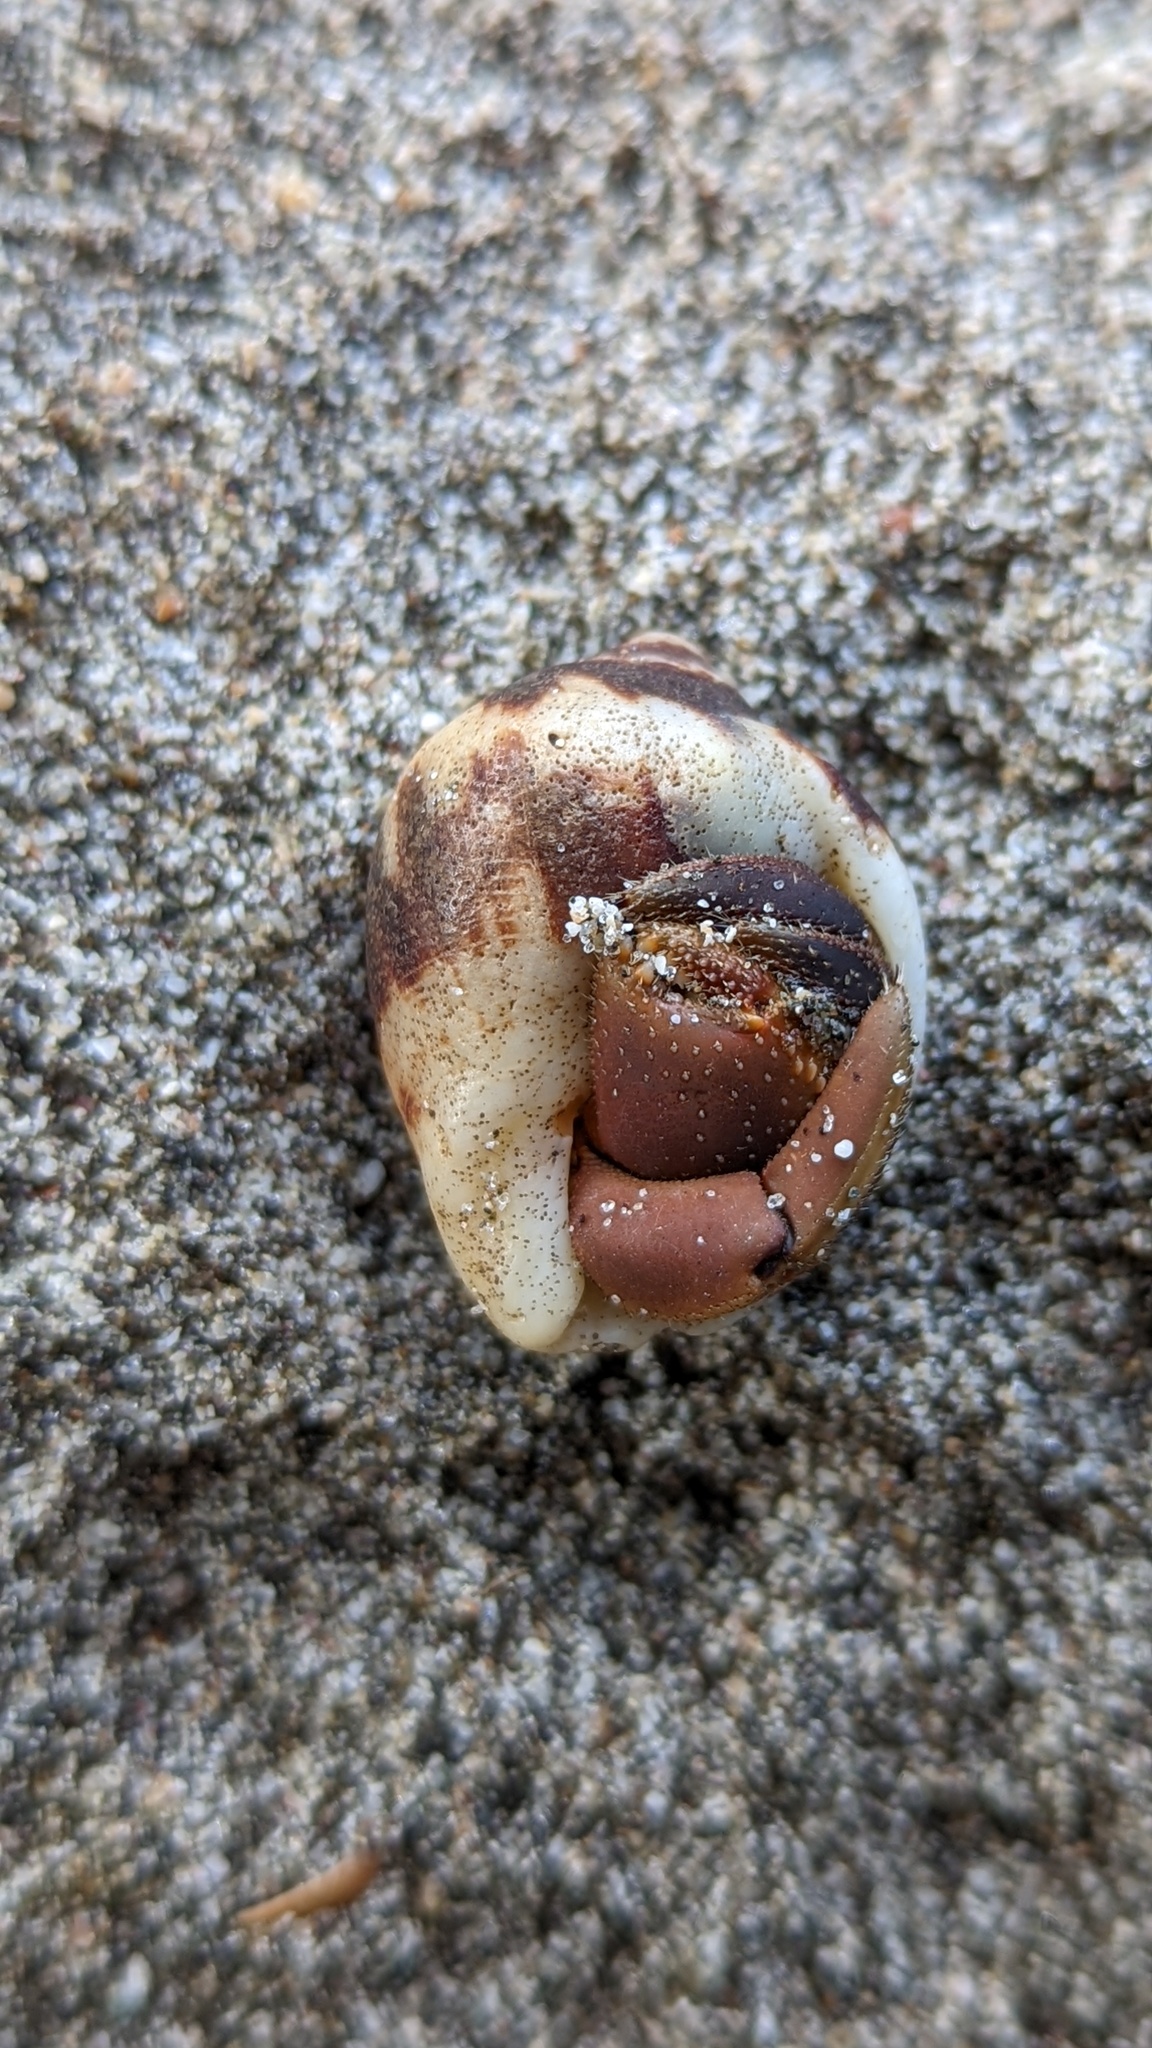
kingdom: Animalia
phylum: Mollusca
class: Gastropoda
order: Neogastropoda
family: Muricidae
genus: Vasula
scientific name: Vasula melones
